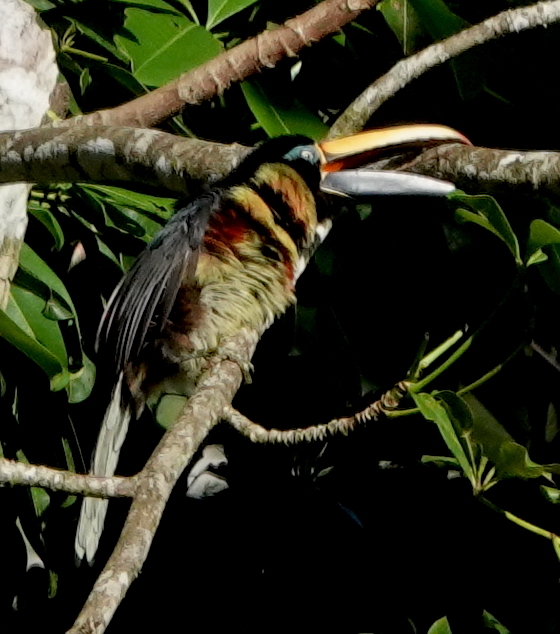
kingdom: Animalia
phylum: Chordata
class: Aves
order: Piciformes
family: Ramphastidae
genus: Pteroglossus
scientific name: Pteroglossus pluricinctus
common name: Many-banded aracari
